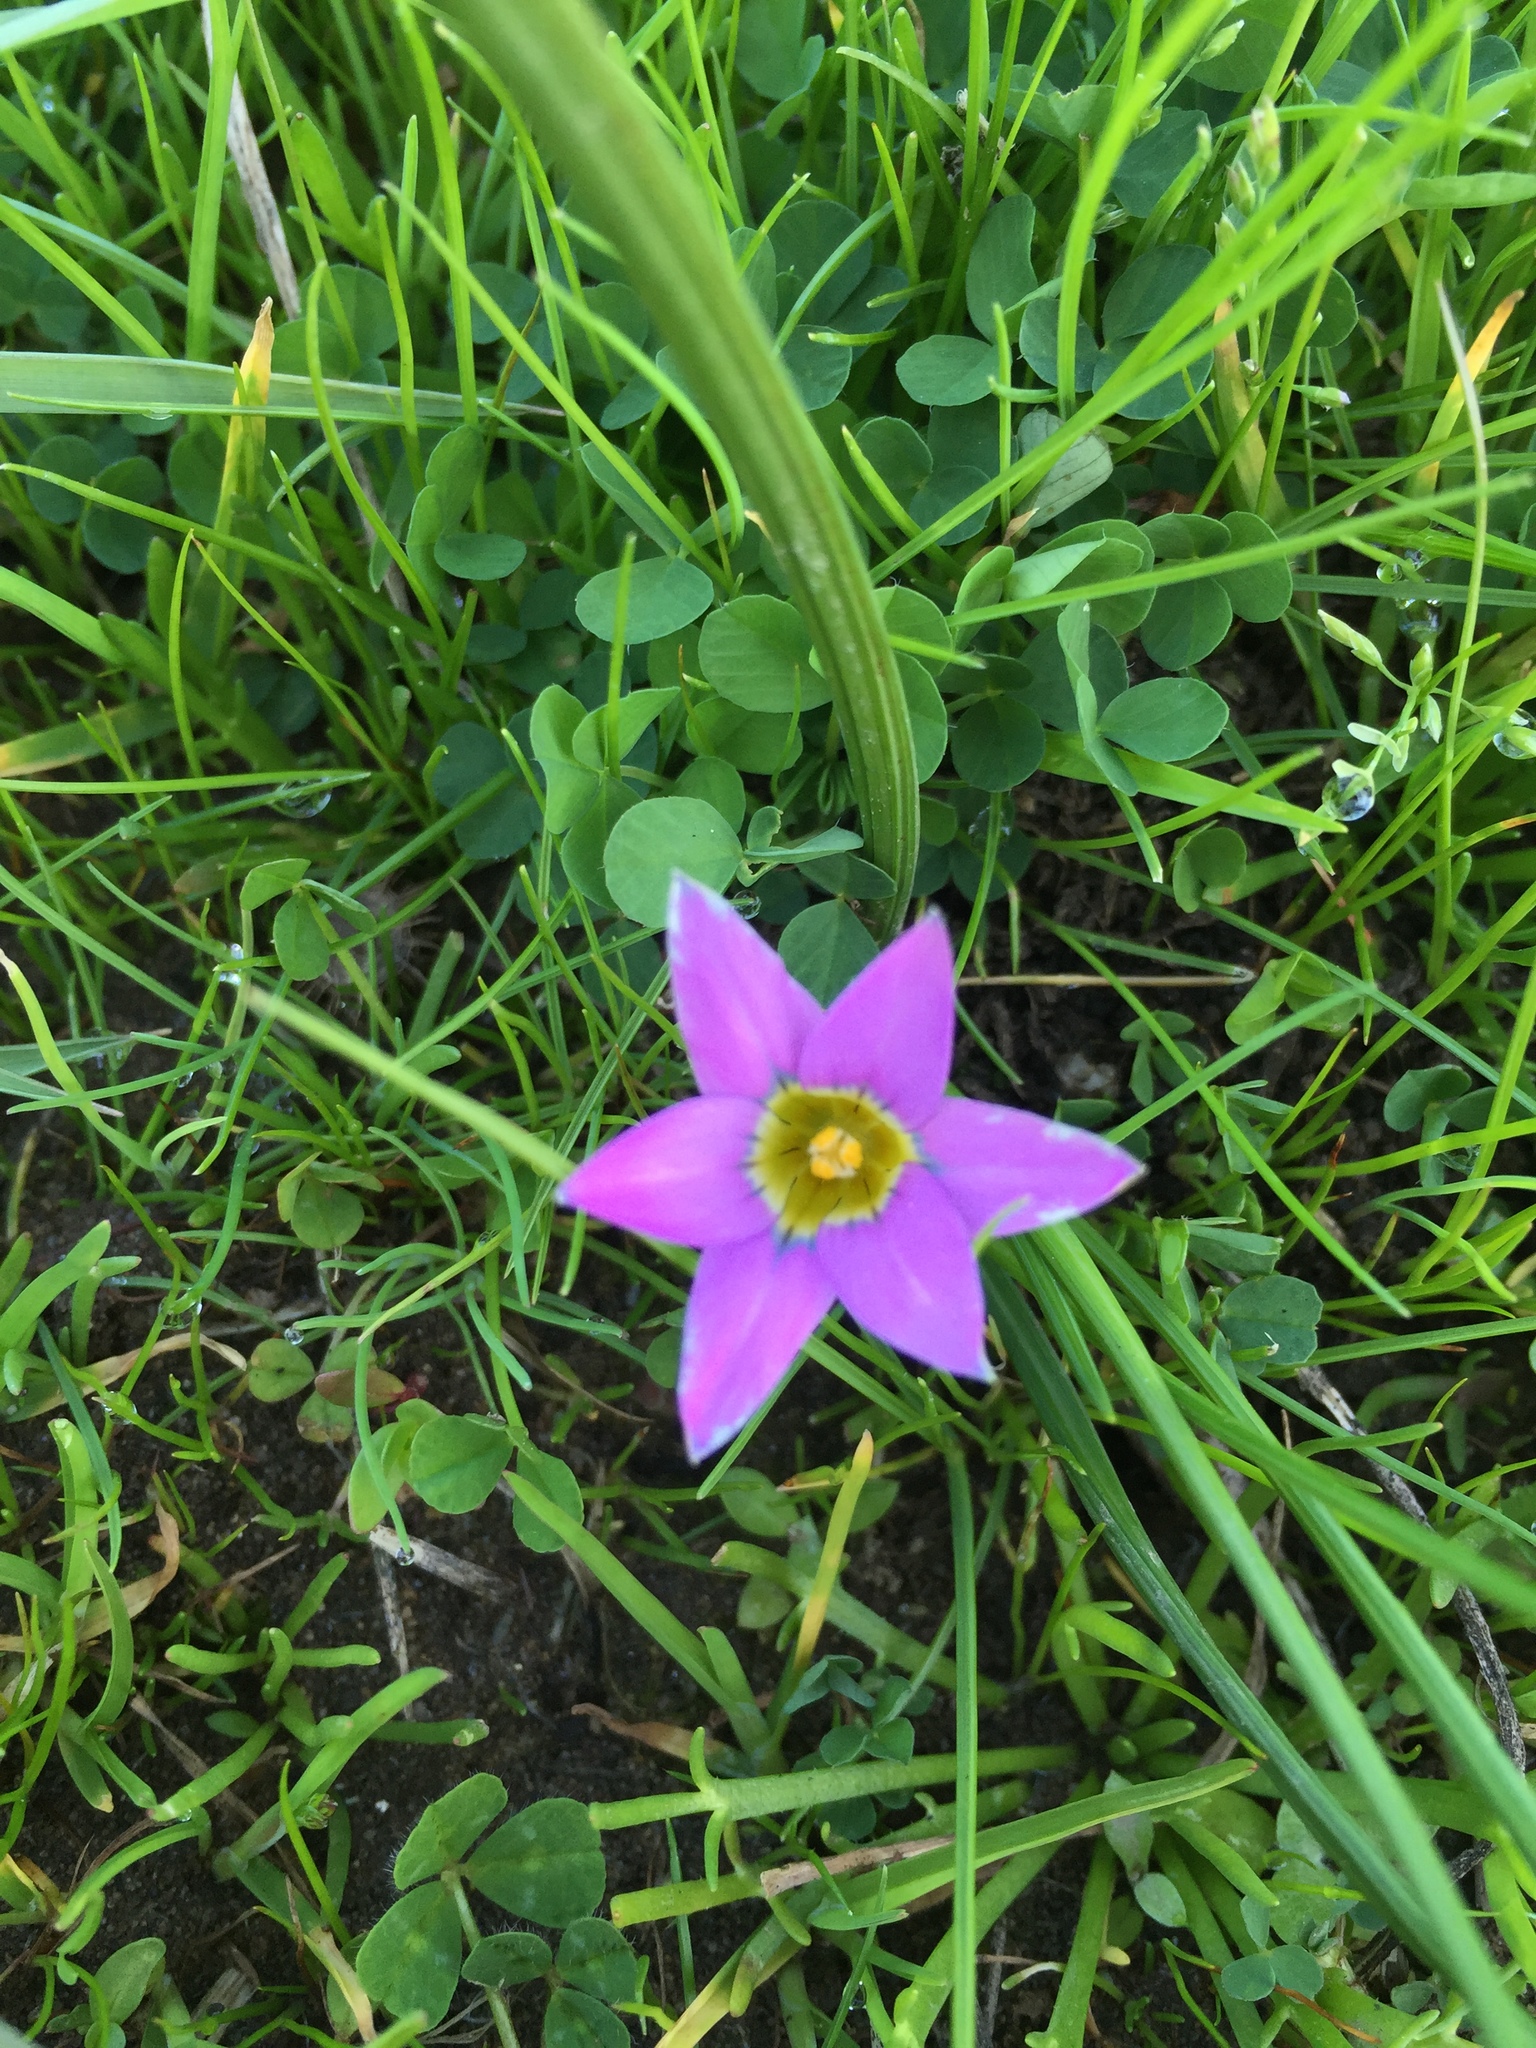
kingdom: Plantae
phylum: Tracheophyta
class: Liliopsida
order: Asparagales
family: Iridaceae
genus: Romulea
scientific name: Romulea rosea
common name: Oniongrass
